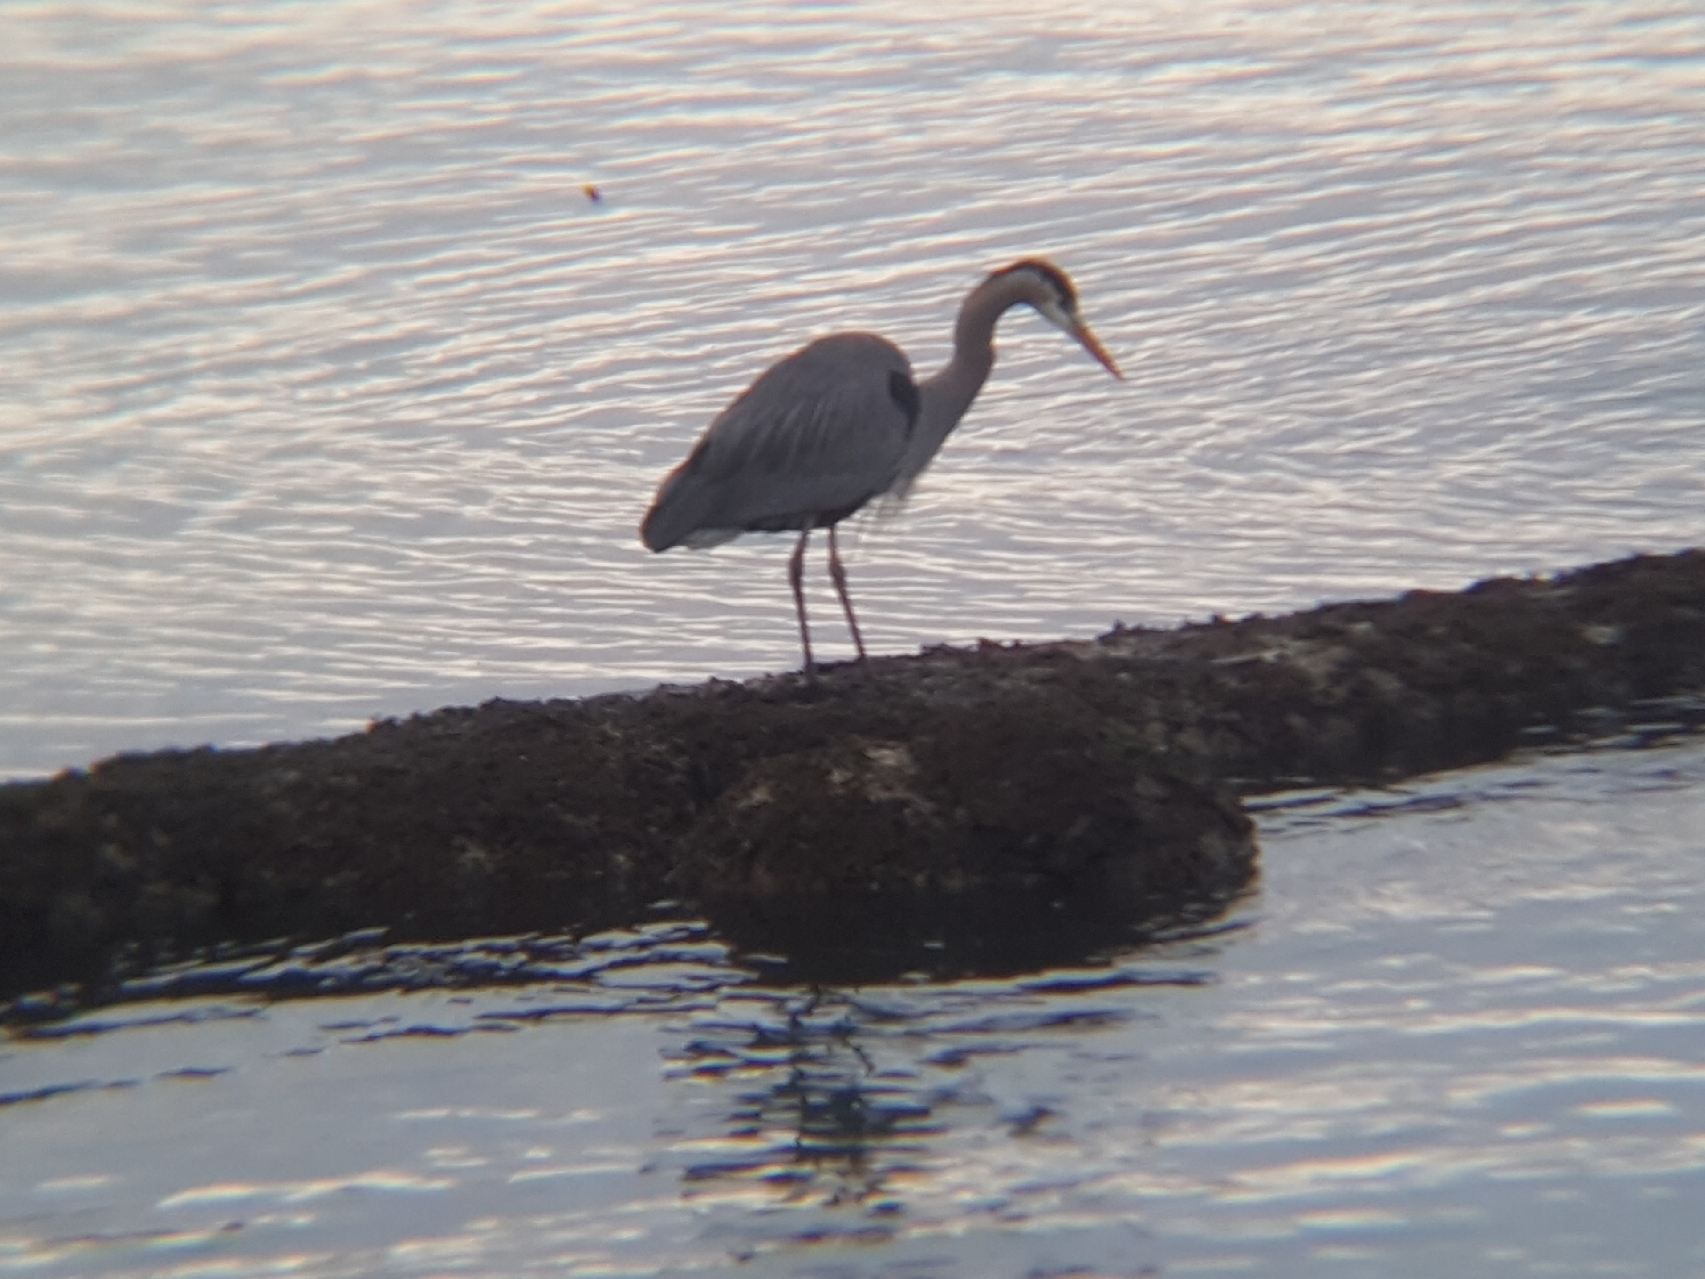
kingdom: Animalia
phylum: Chordata
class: Aves
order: Pelecaniformes
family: Ardeidae
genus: Ardea
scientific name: Ardea herodias
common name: Great blue heron
